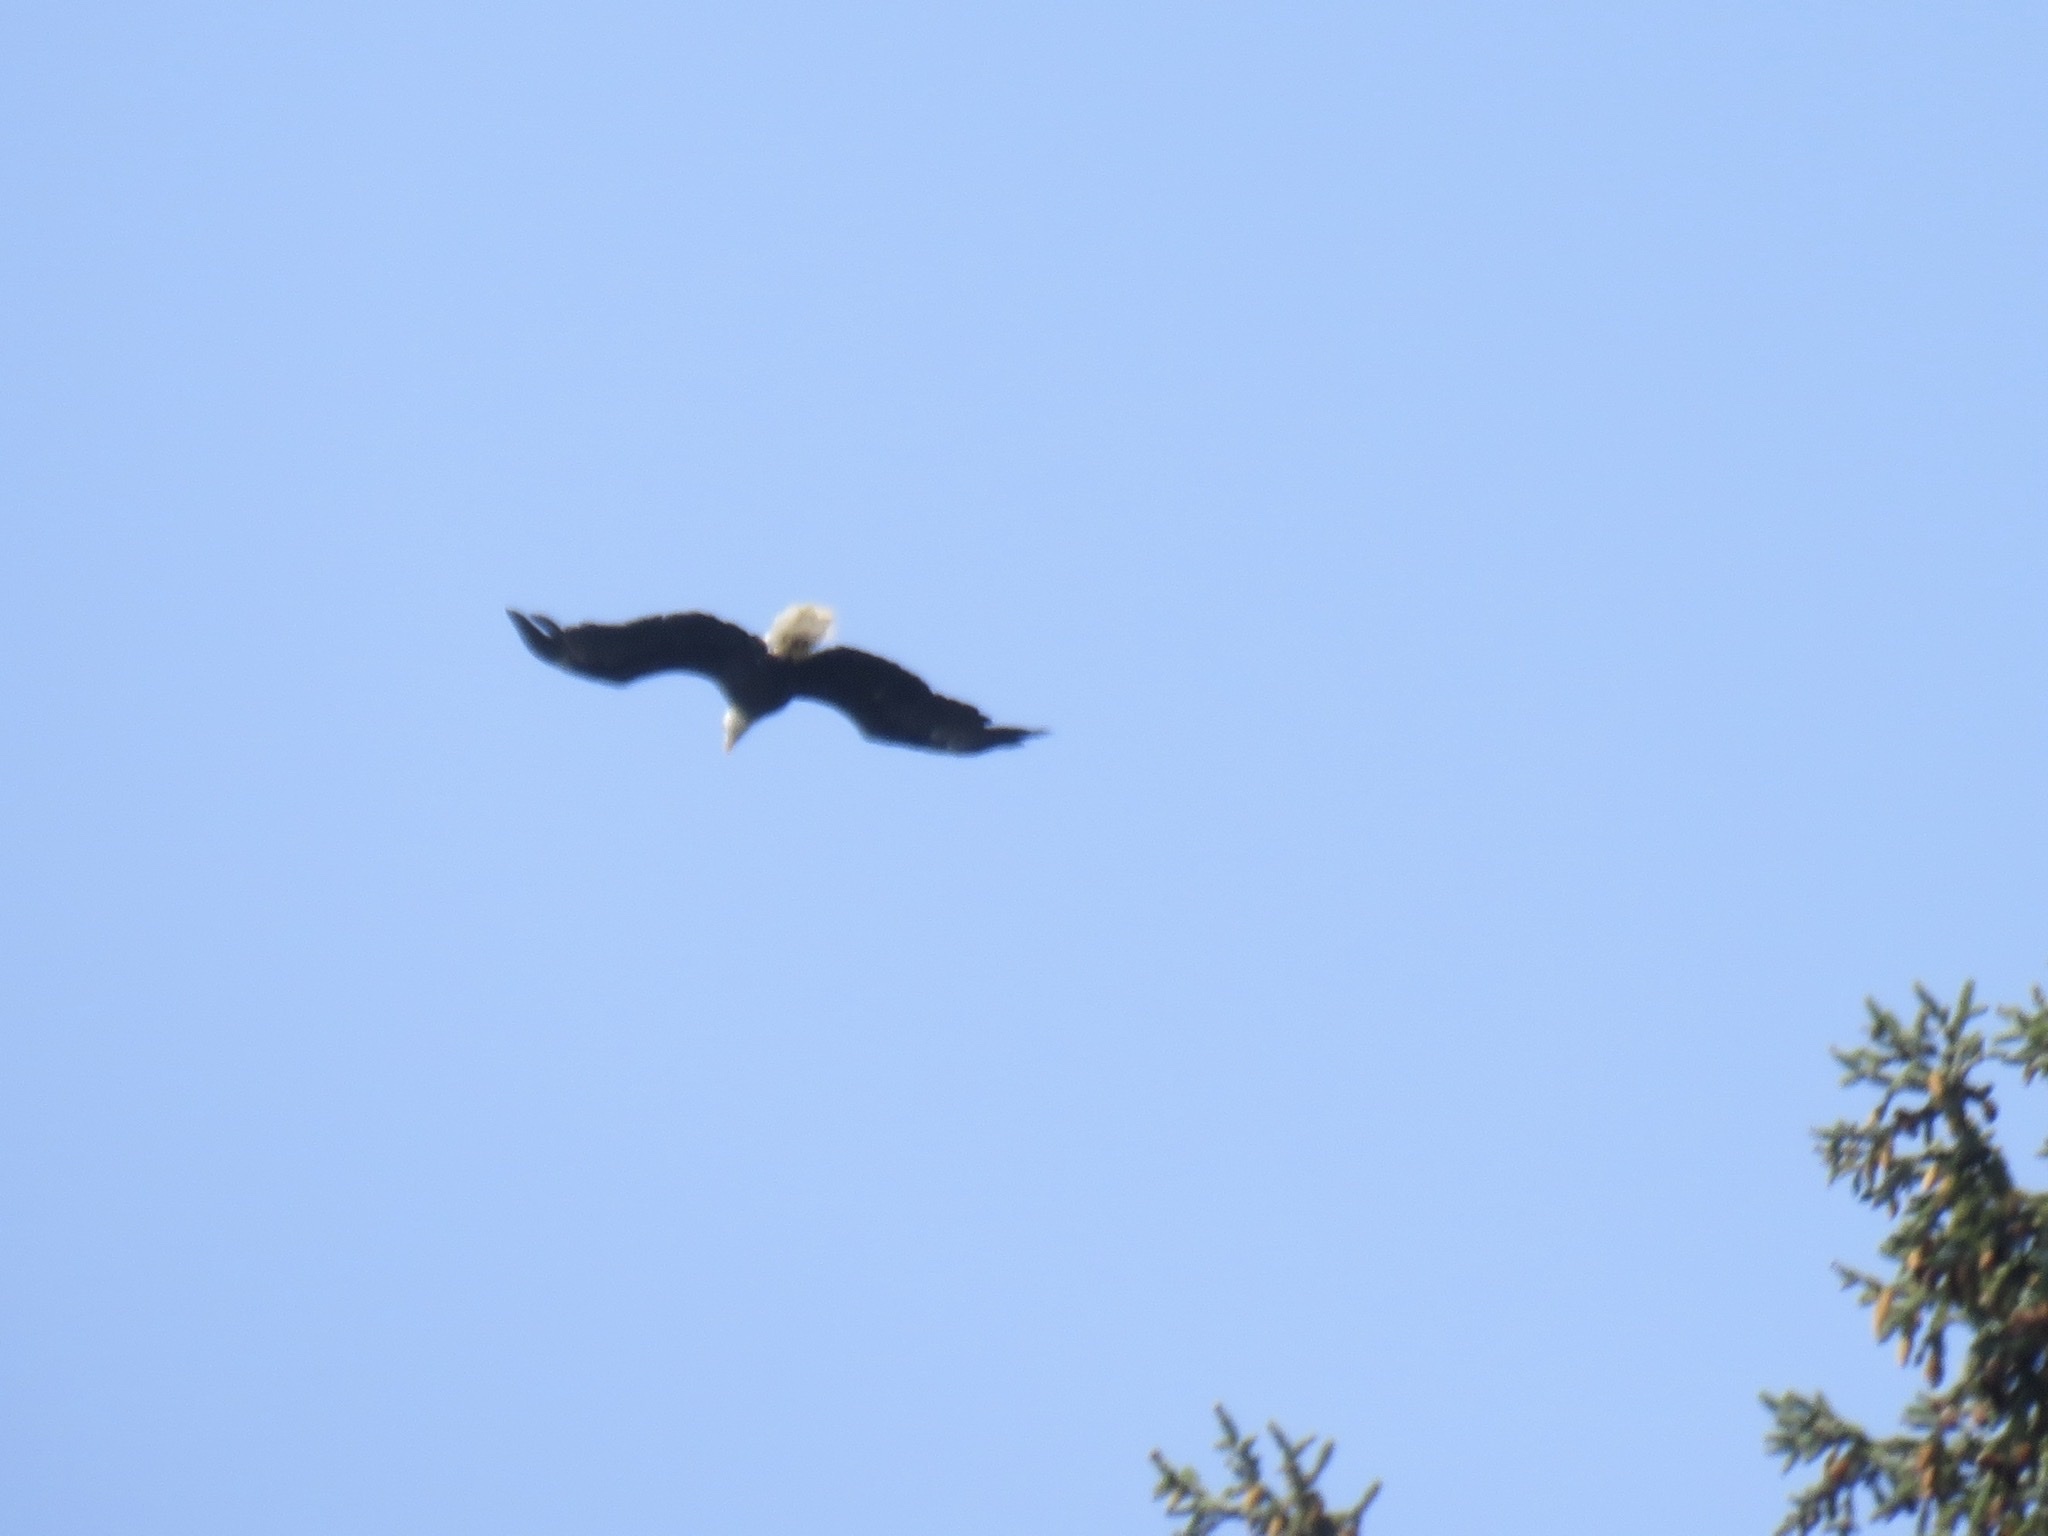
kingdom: Animalia
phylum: Chordata
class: Aves
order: Accipitriformes
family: Accipitridae
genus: Haliaeetus
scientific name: Haliaeetus leucocephalus
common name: Bald eagle
